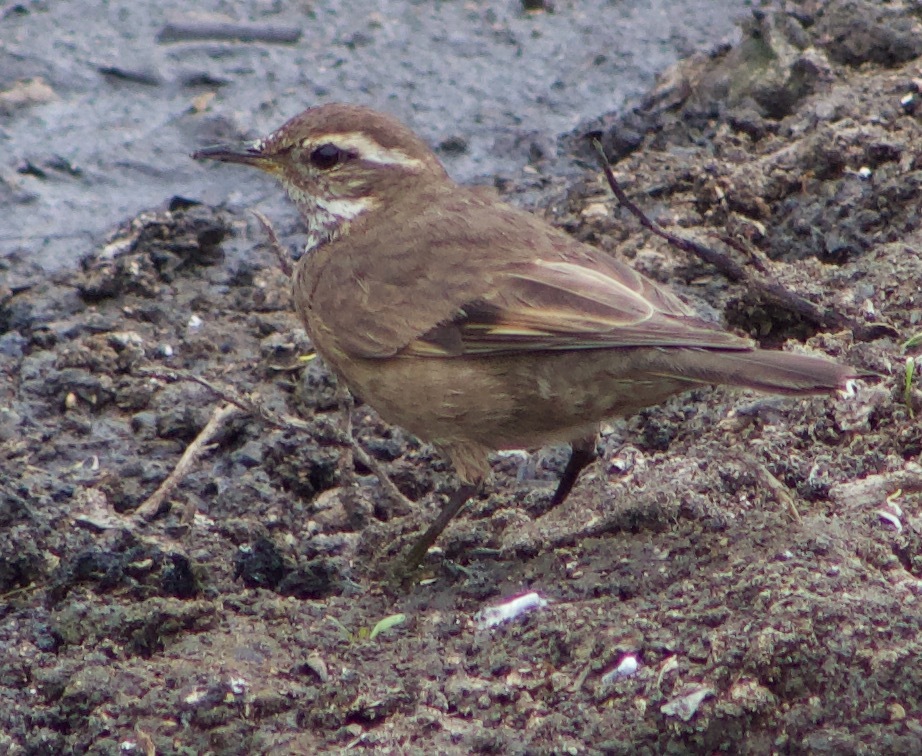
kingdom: Animalia
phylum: Chordata
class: Aves
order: Passeriformes
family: Furnariidae
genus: Cinclodes
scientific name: Cinclodes fuscus
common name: Buff-winged cinclodes
